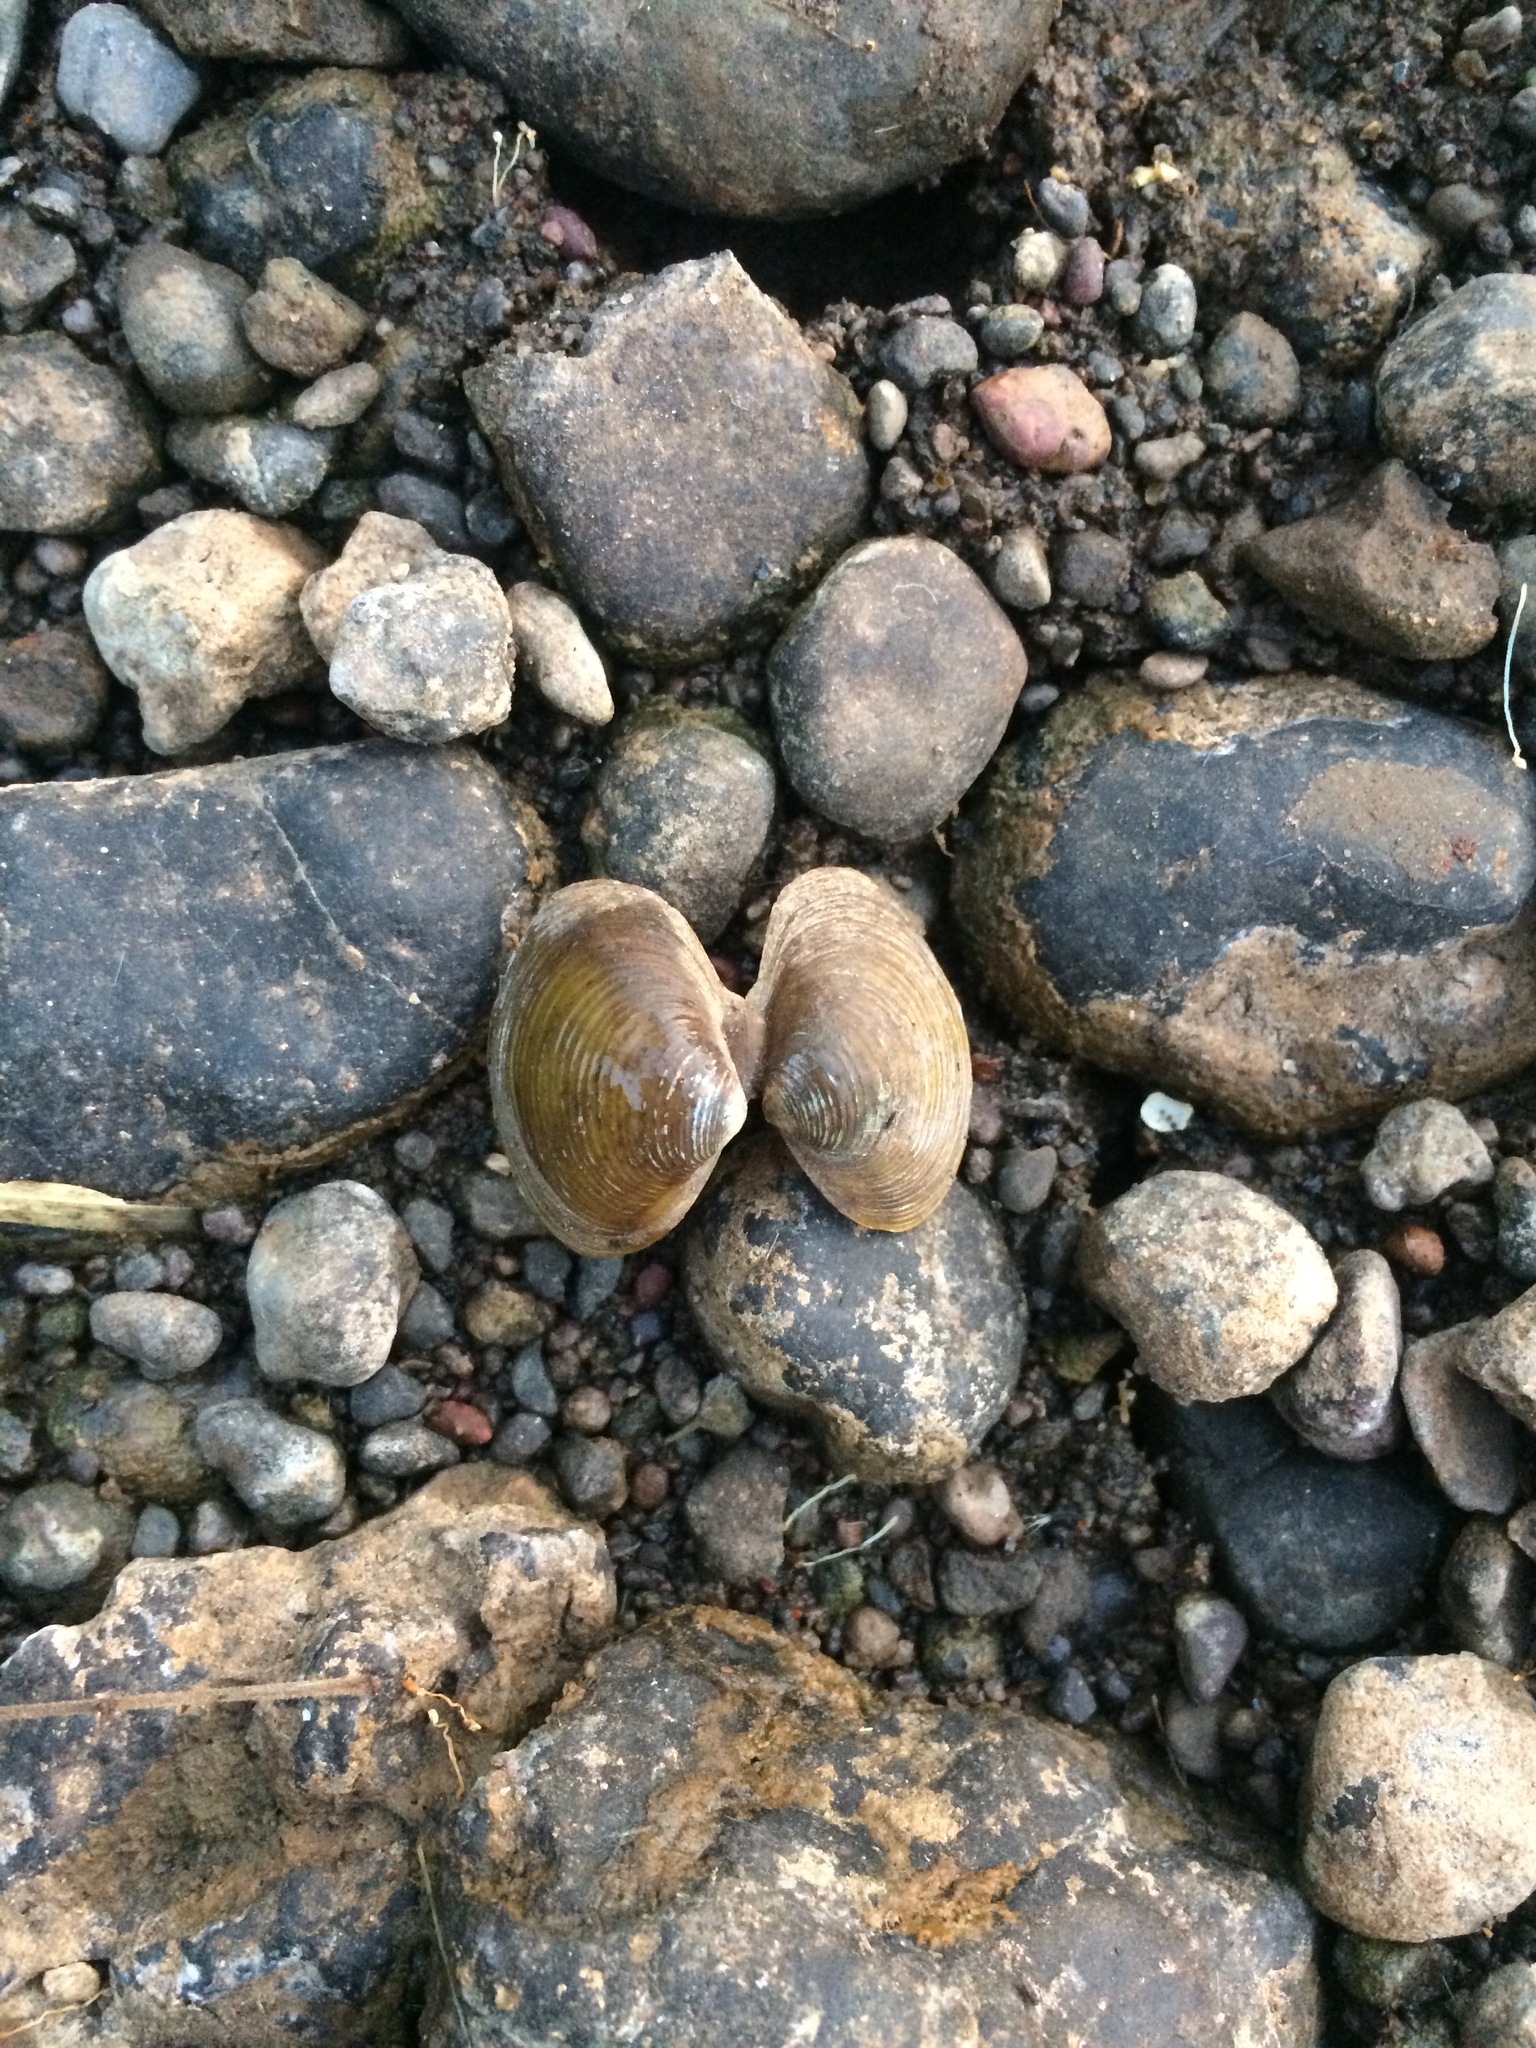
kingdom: Animalia
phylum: Mollusca
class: Bivalvia
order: Venerida
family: Cyrenidae
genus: Corbicula
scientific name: Corbicula striatella
